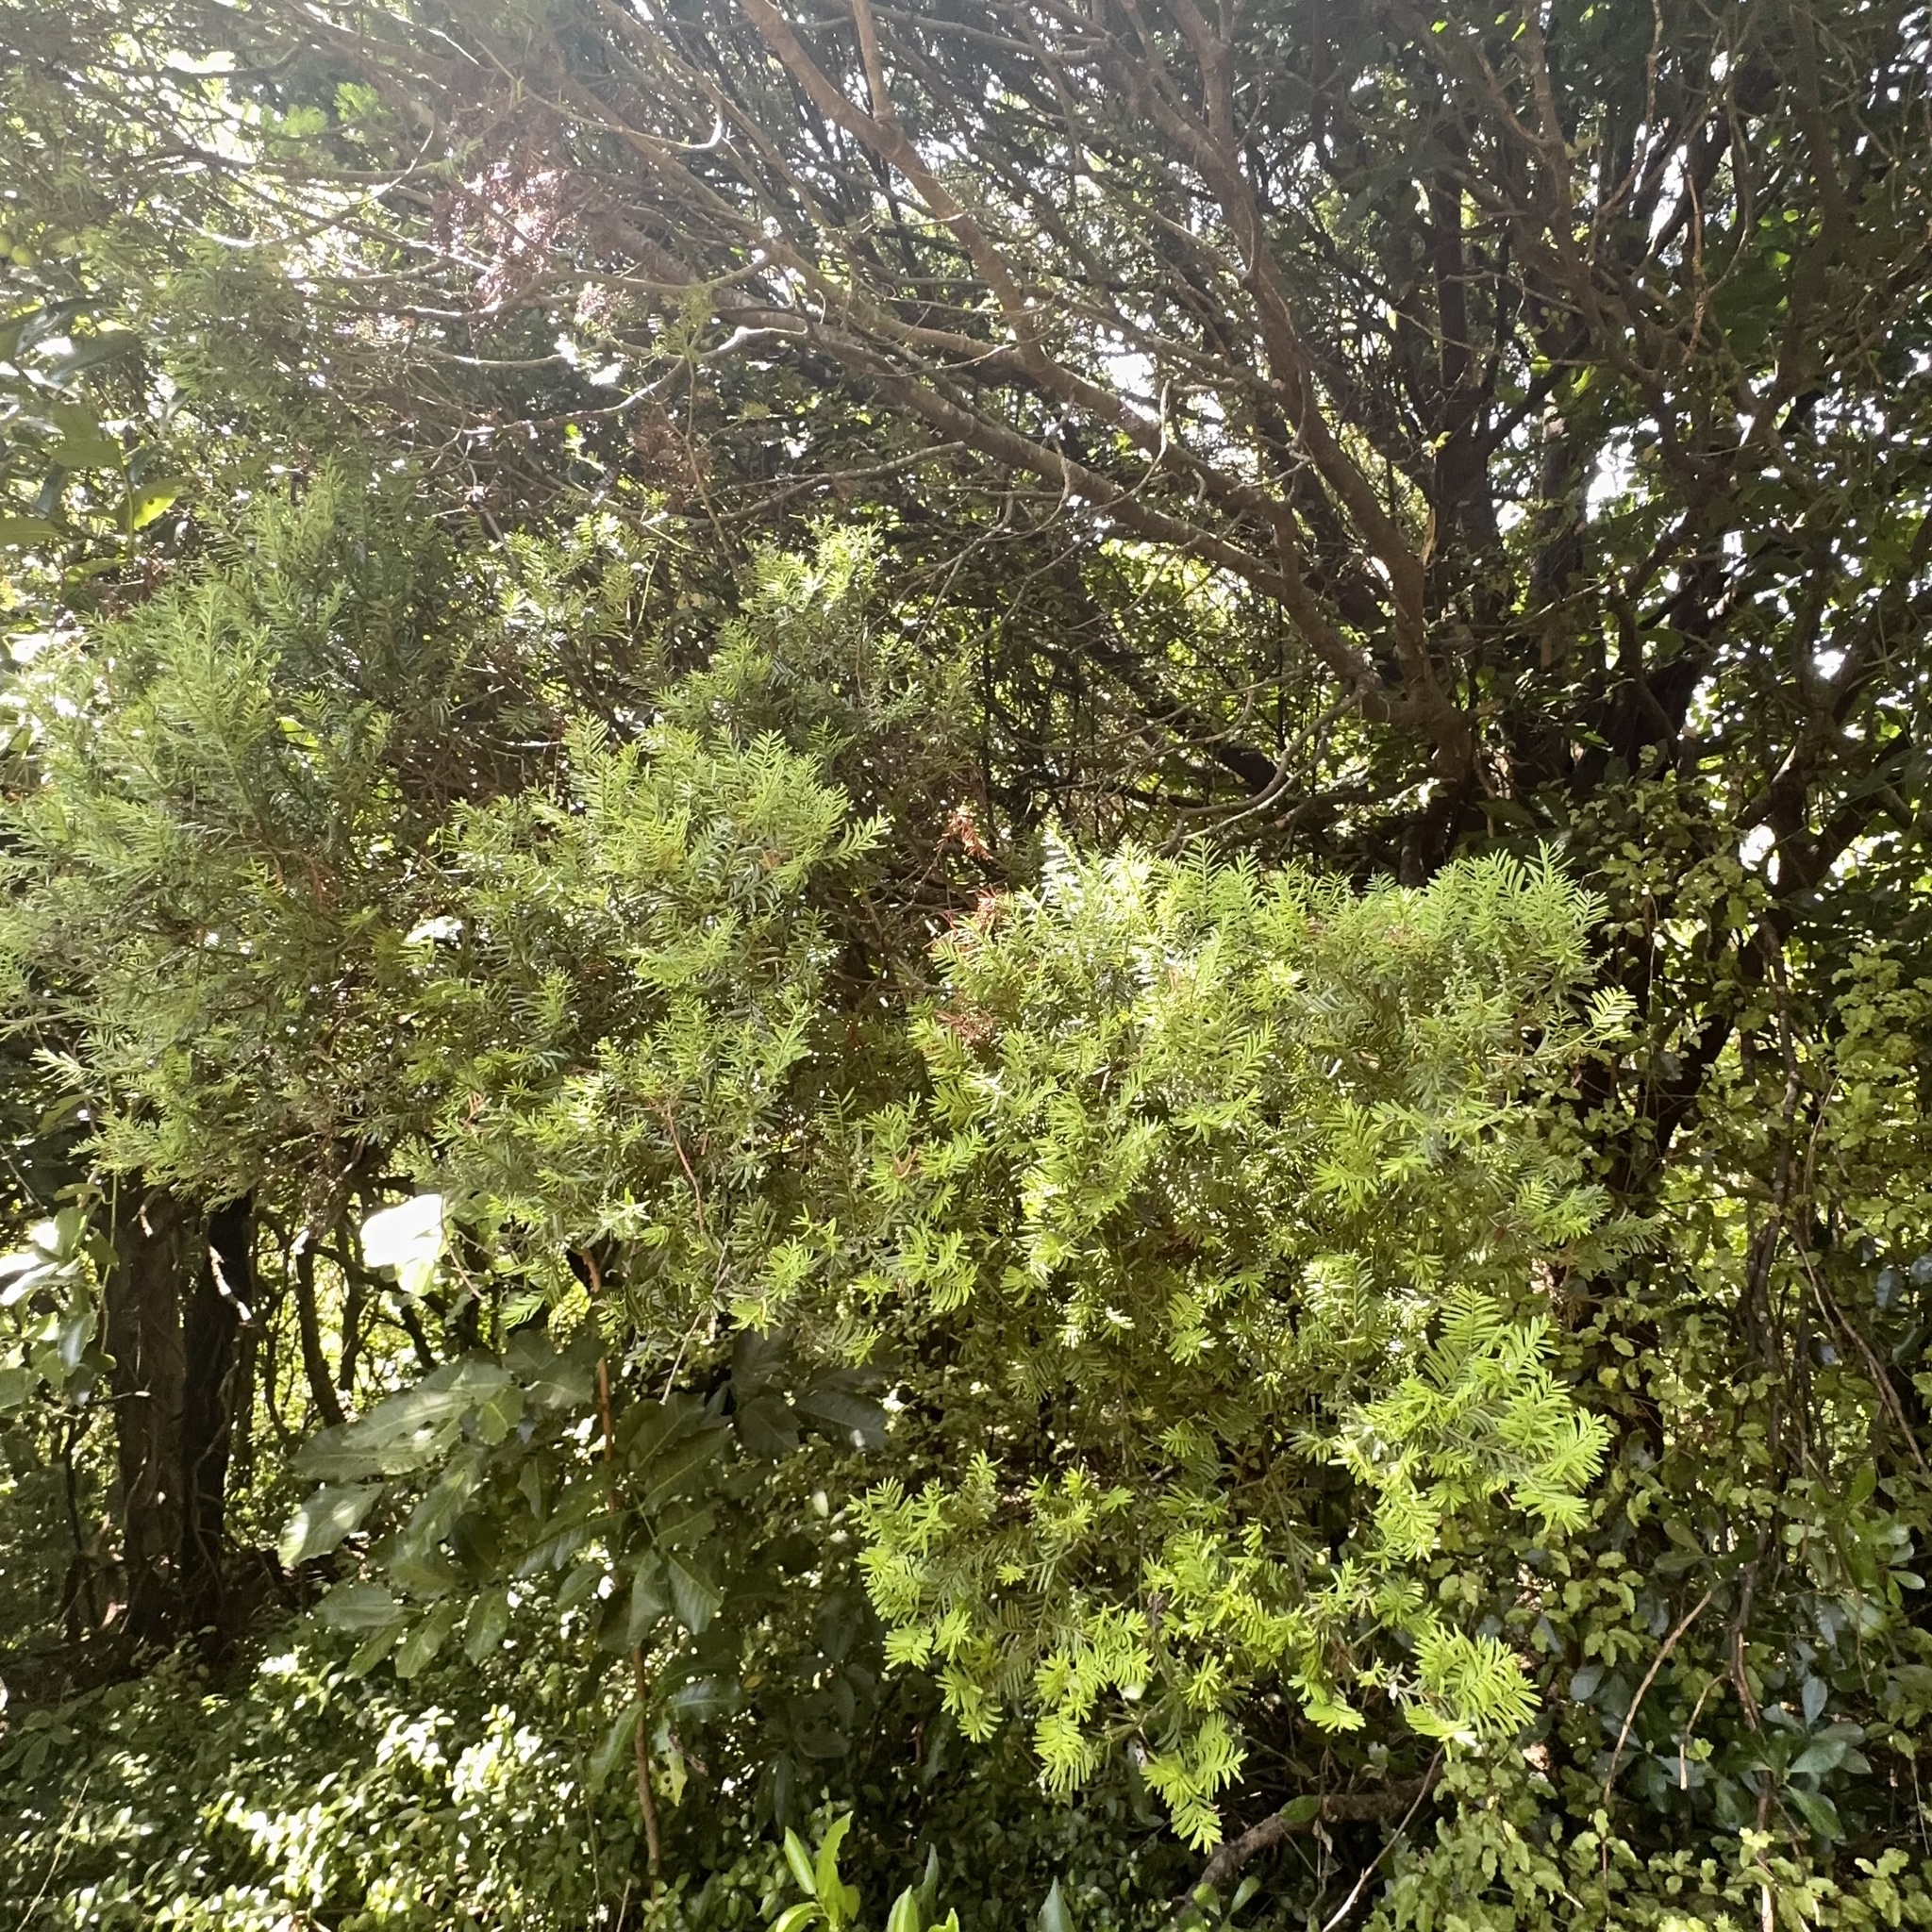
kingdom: Plantae
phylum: Tracheophyta
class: Pinopsida
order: Pinales
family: Podocarpaceae
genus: Prumnopitys
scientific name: Prumnopitys taxifolia
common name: Matai
